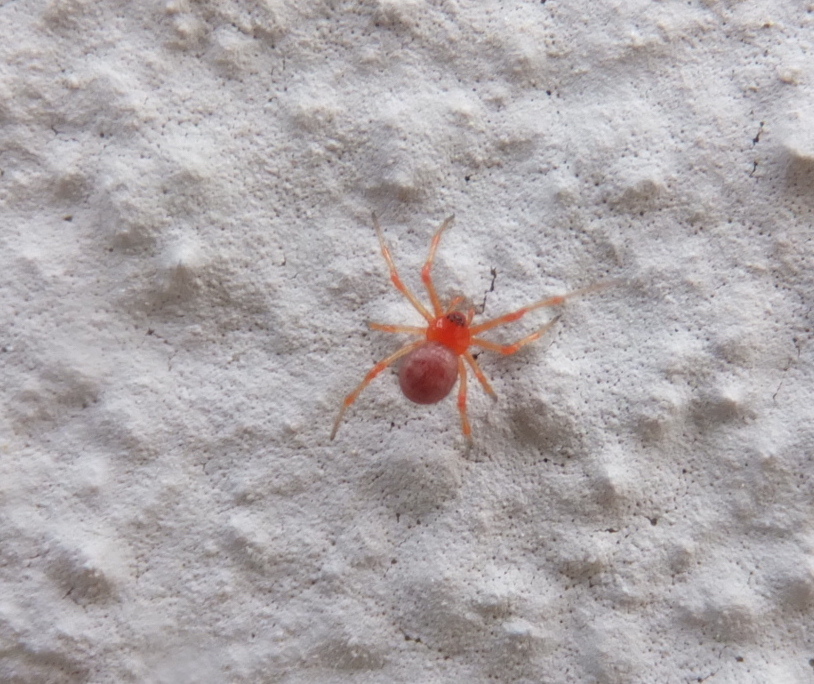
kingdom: Animalia
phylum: Arthropoda
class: Arachnida
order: Araneae
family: Theridiidae
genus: Ruborridion
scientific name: Ruborridion musivum
